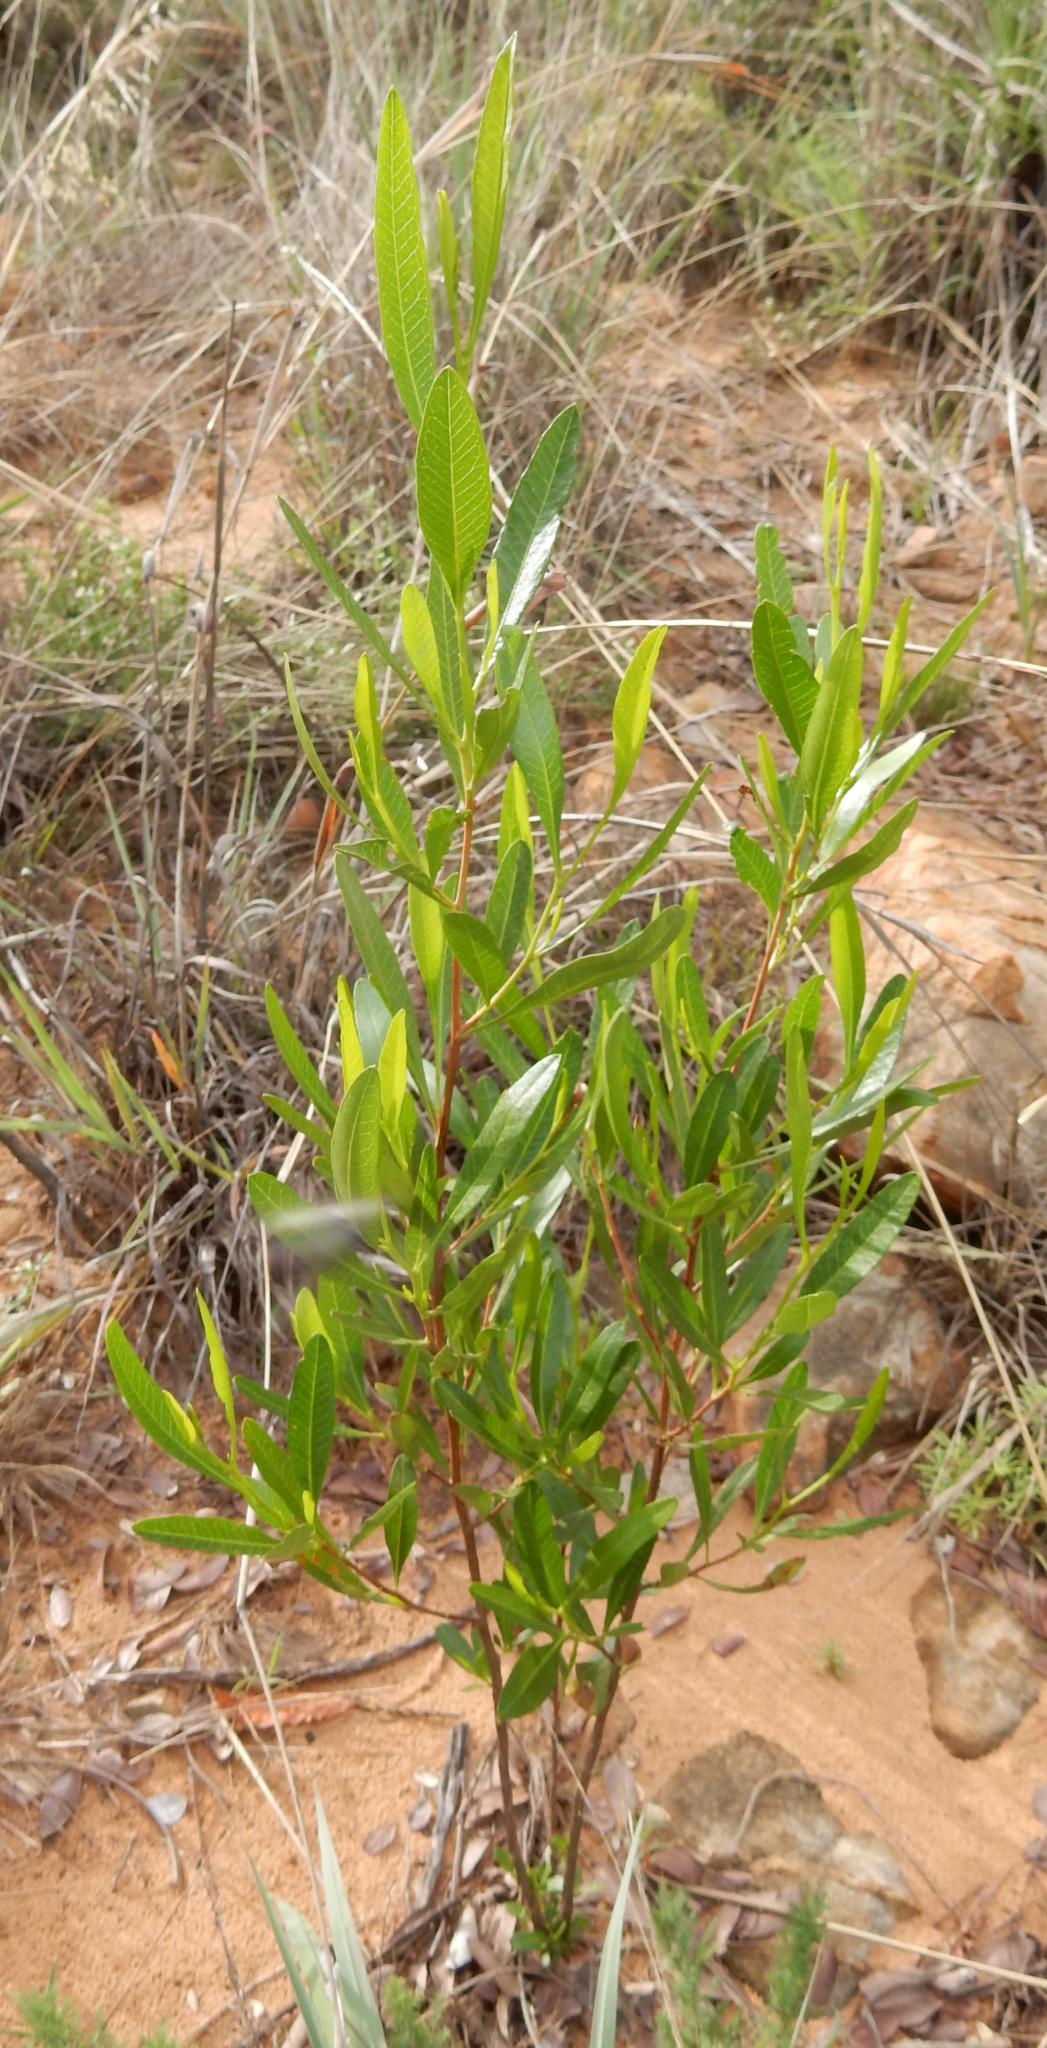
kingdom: Plantae
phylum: Tracheophyta
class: Magnoliopsida
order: Sapindales
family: Sapindaceae
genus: Dodonaea
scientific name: Dodonaea viscosa
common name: Hopbush
